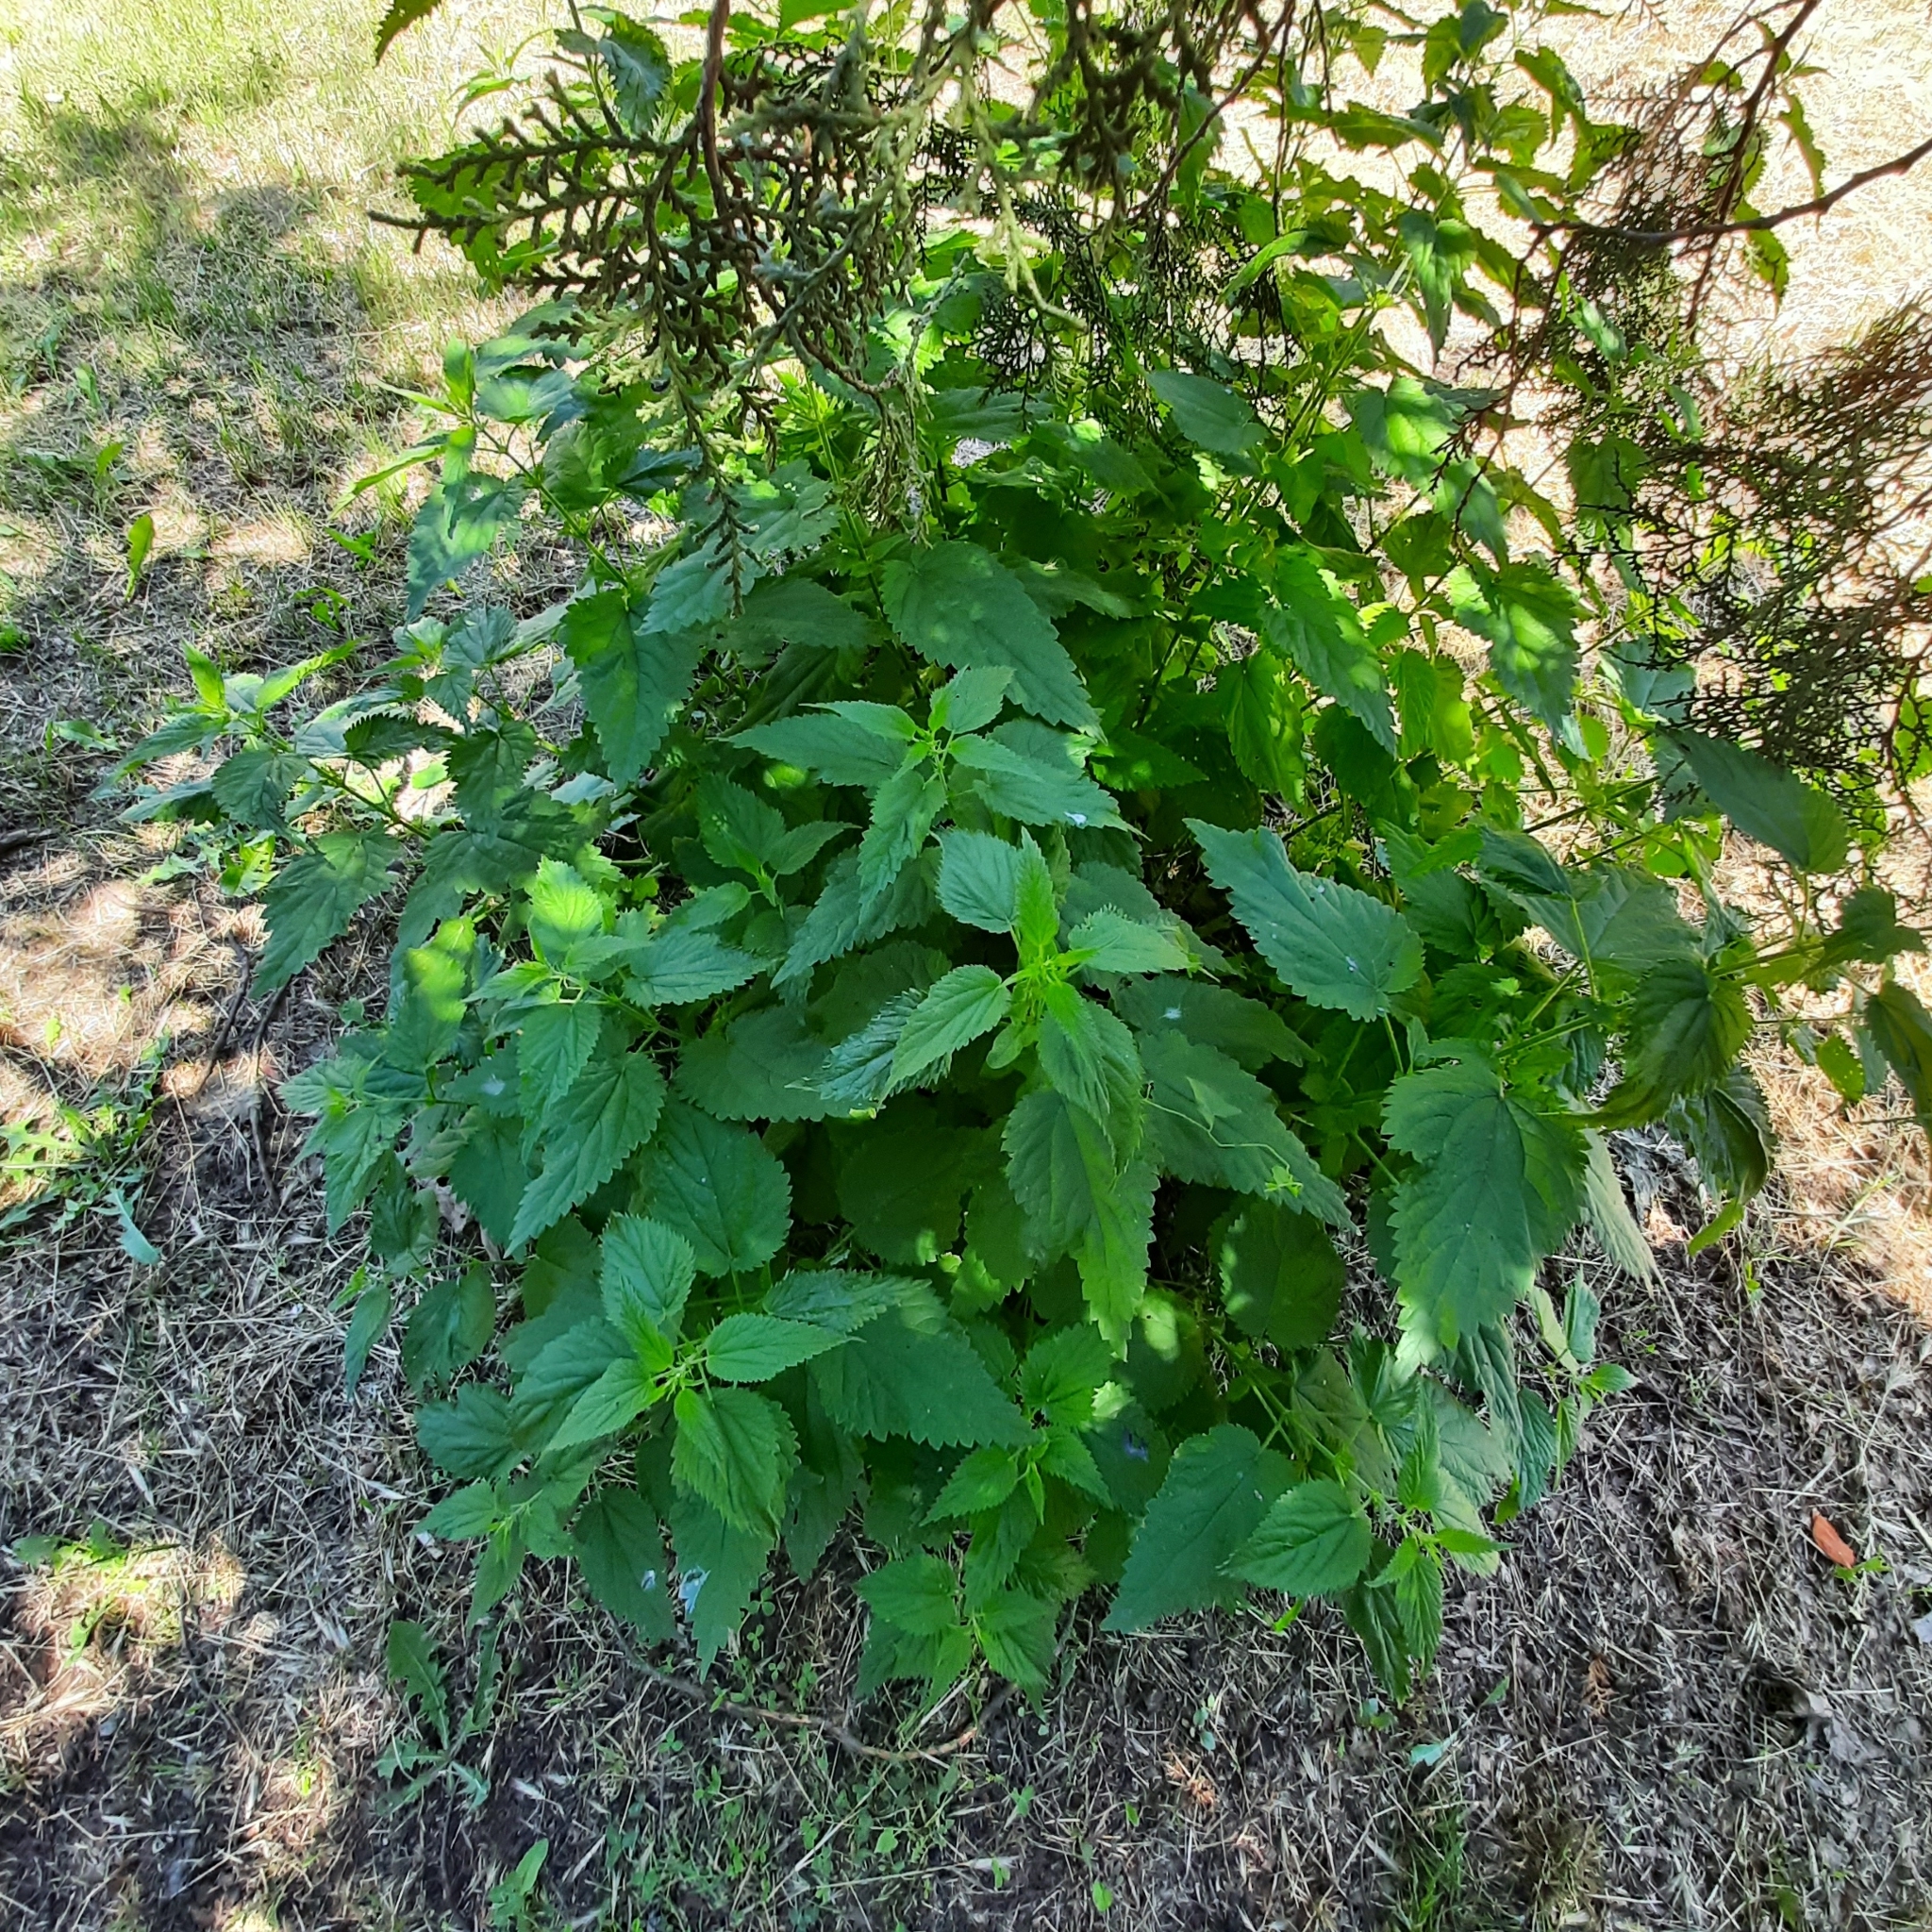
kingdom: Plantae
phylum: Tracheophyta
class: Magnoliopsida
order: Rosales
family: Urticaceae
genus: Urtica
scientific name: Urtica dioica
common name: Common nettle
